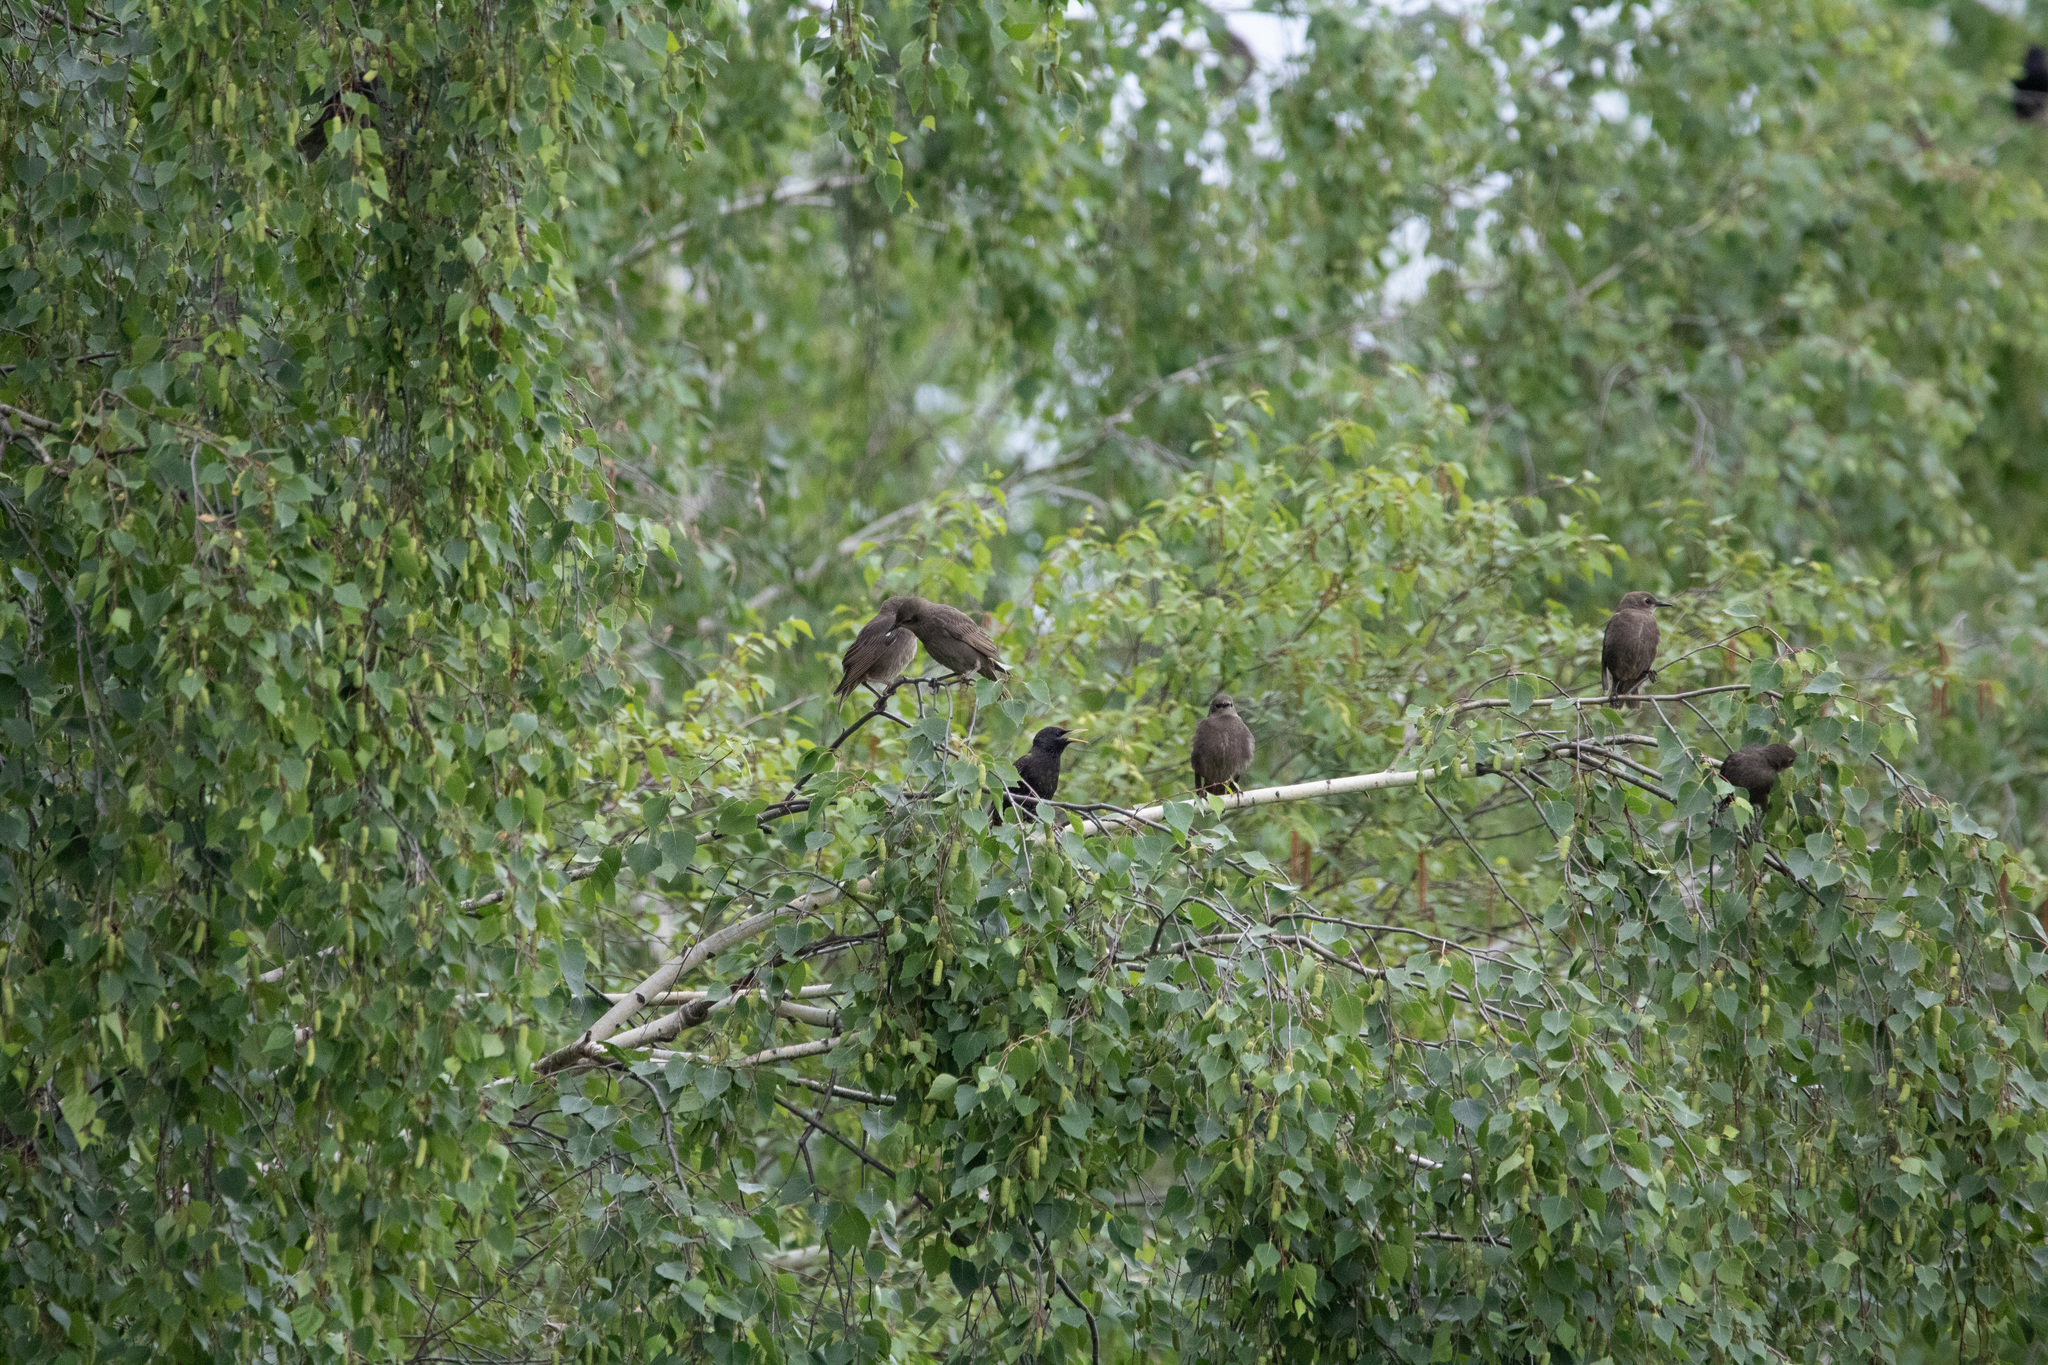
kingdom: Animalia
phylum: Chordata
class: Aves
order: Passeriformes
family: Sturnidae
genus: Sturnus
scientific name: Sturnus vulgaris
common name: Common starling
